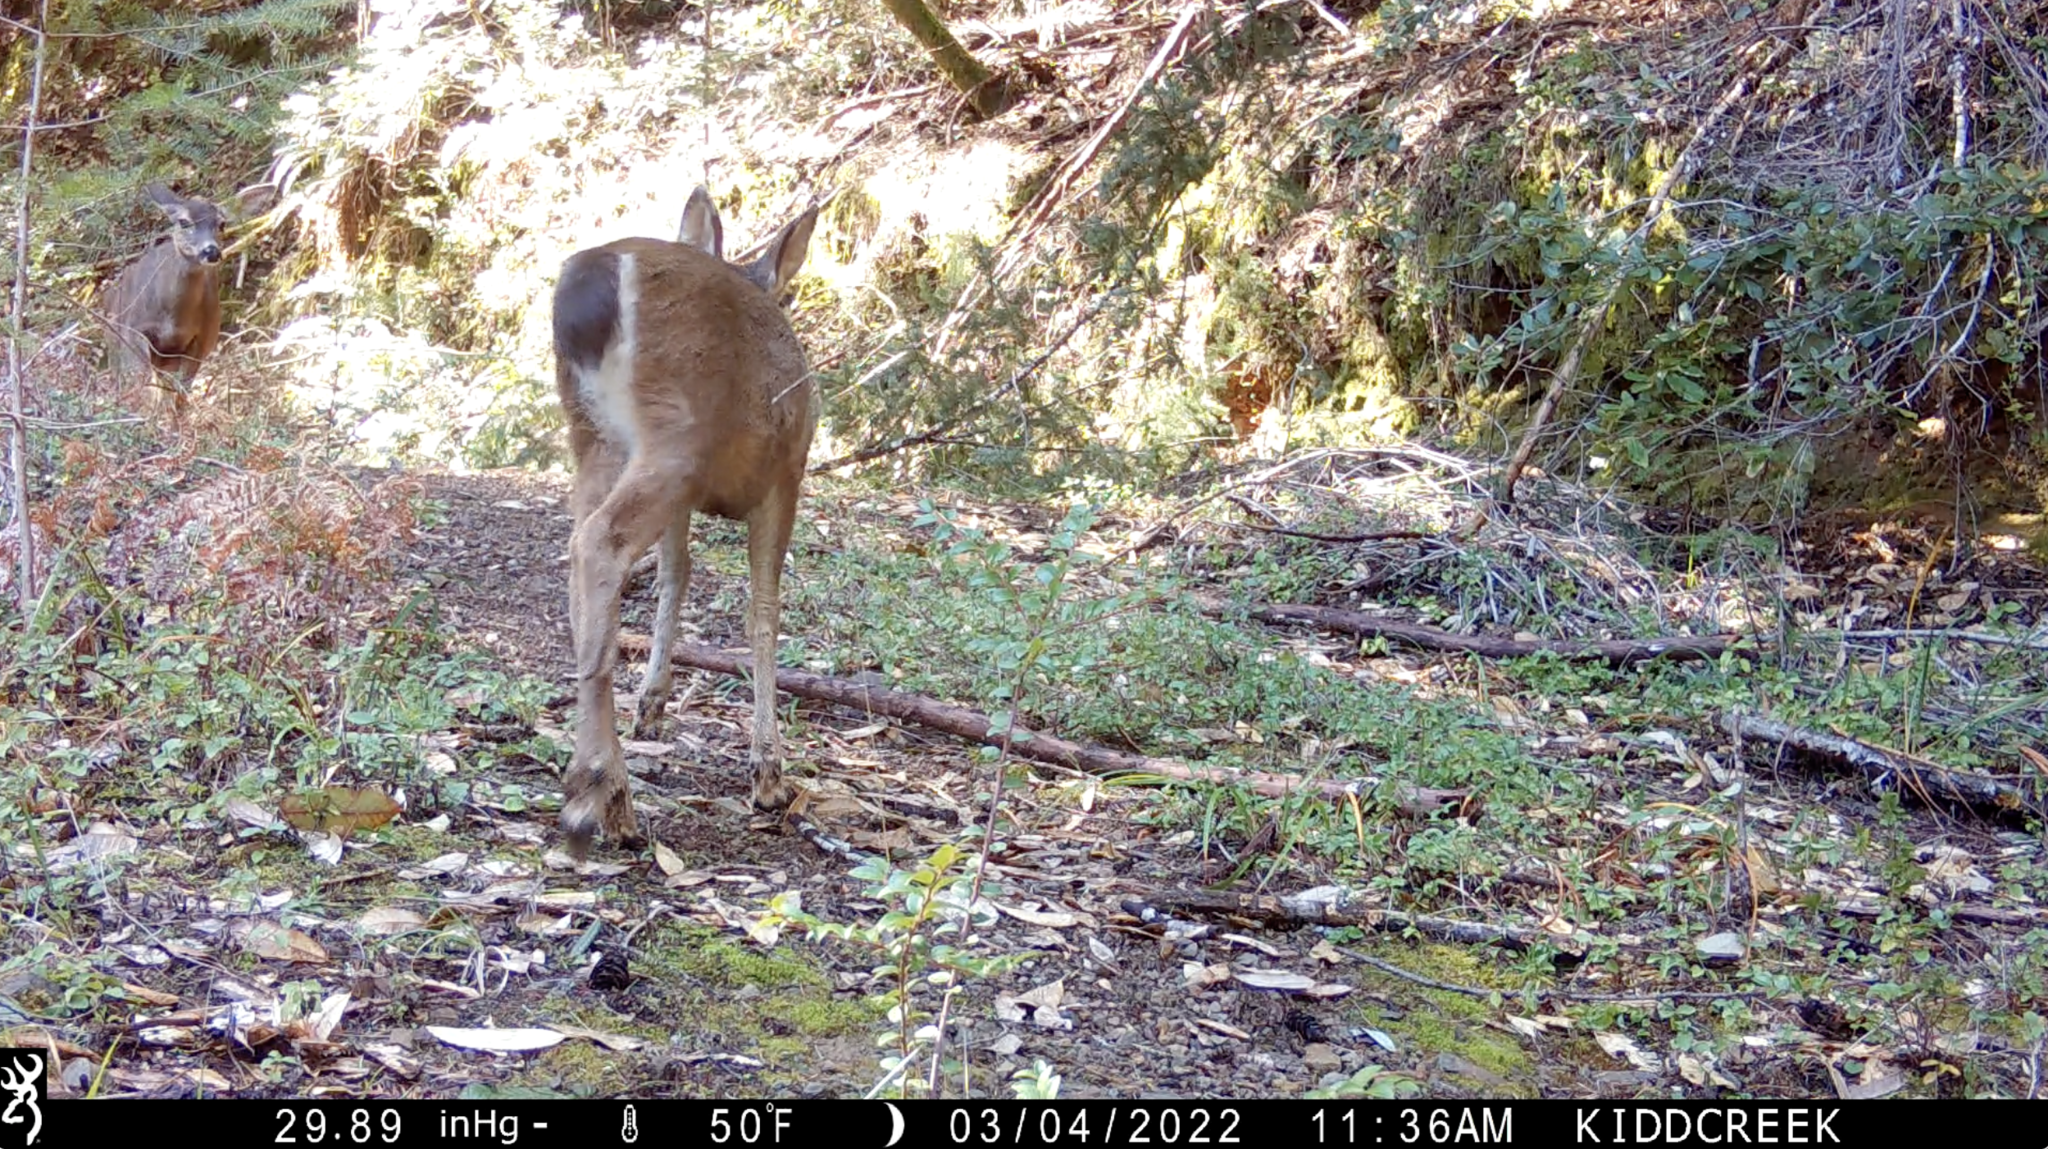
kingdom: Animalia
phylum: Chordata
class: Mammalia
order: Artiodactyla
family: Cervidae
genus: Odocoileus
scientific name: Odocoileus hemionus
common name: Mule deer
